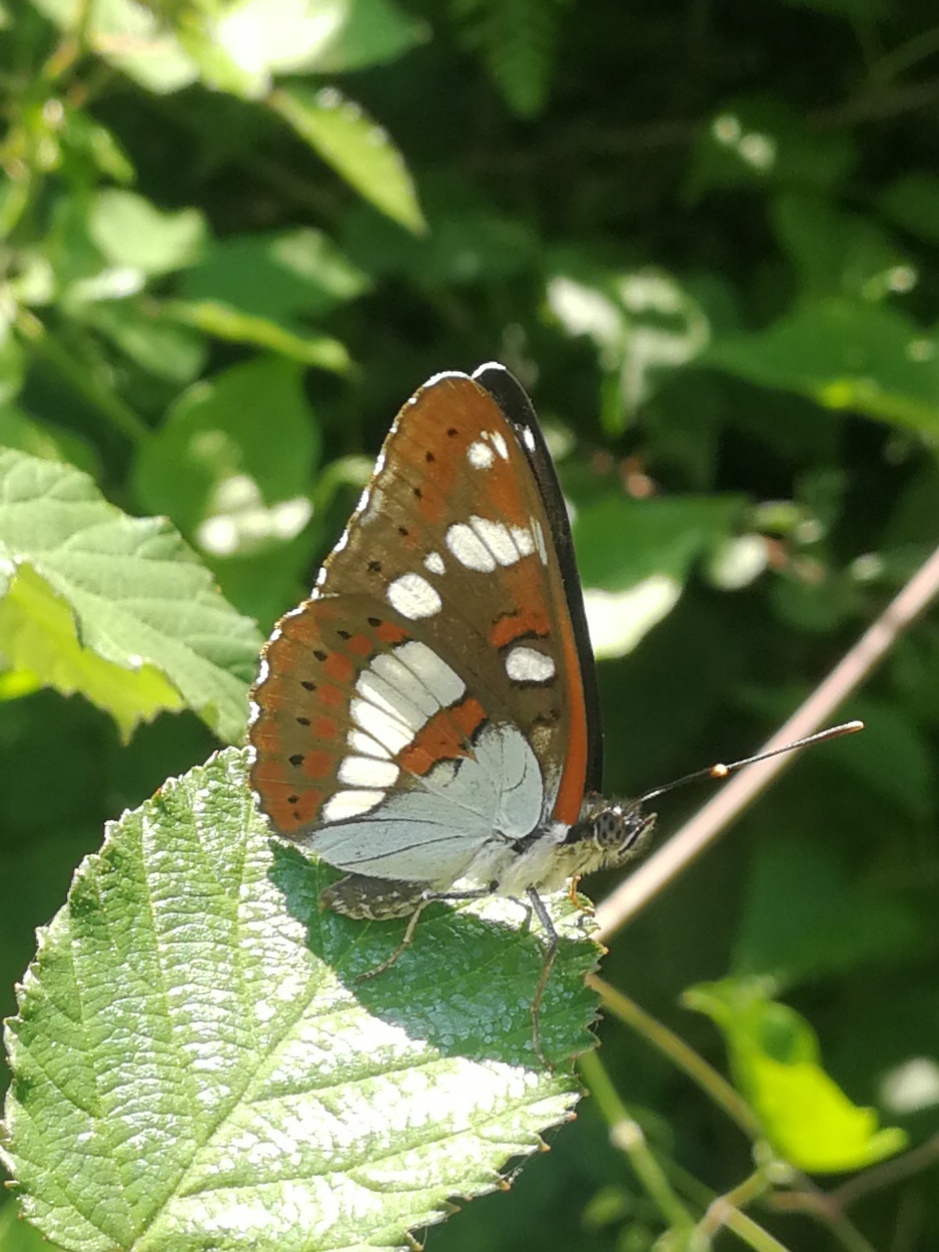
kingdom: Animalia
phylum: Arthropoda
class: Insecta
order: Lepidoptera
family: Nymphalidae
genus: Limenitis
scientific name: Limenitis reducta
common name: Southern white admiral
